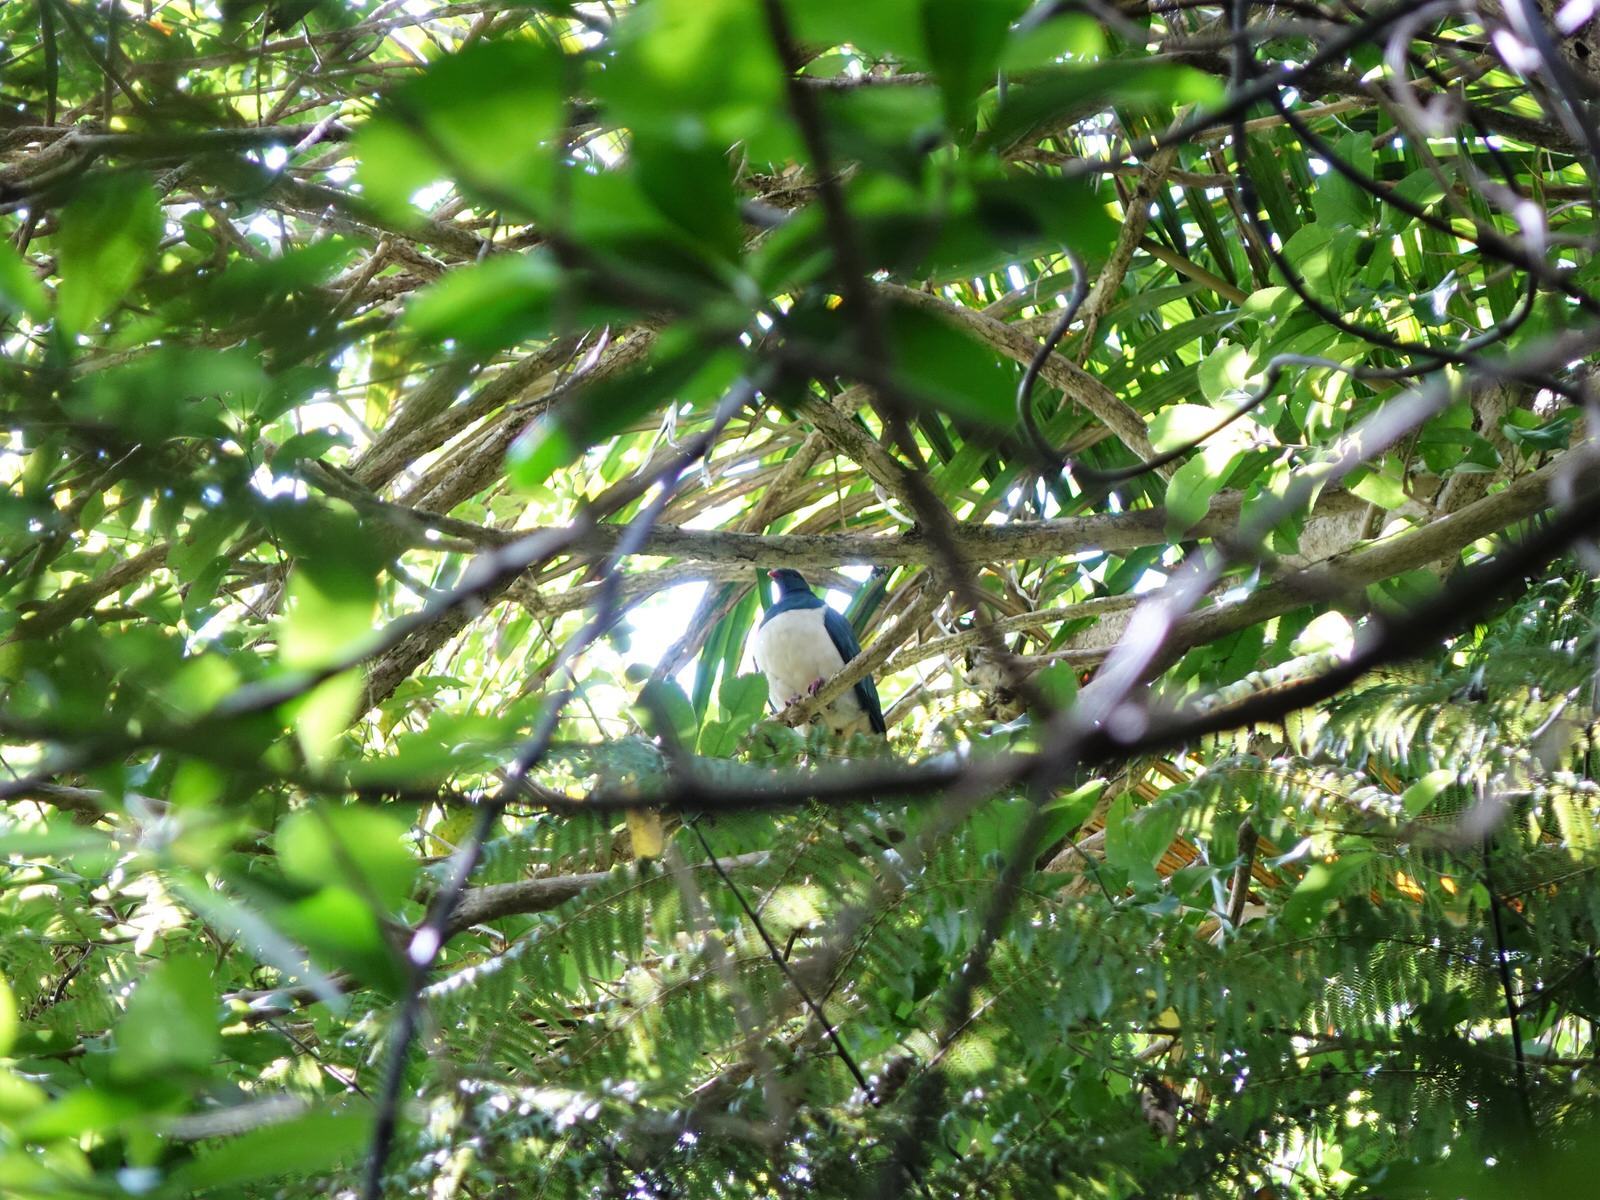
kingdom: Animalia
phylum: Chordata
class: Aves
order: Columbiformes
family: Columbidae
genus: Hemiphaga
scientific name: Hemiphaga novaeseelandiae
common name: New zealand pigeon
